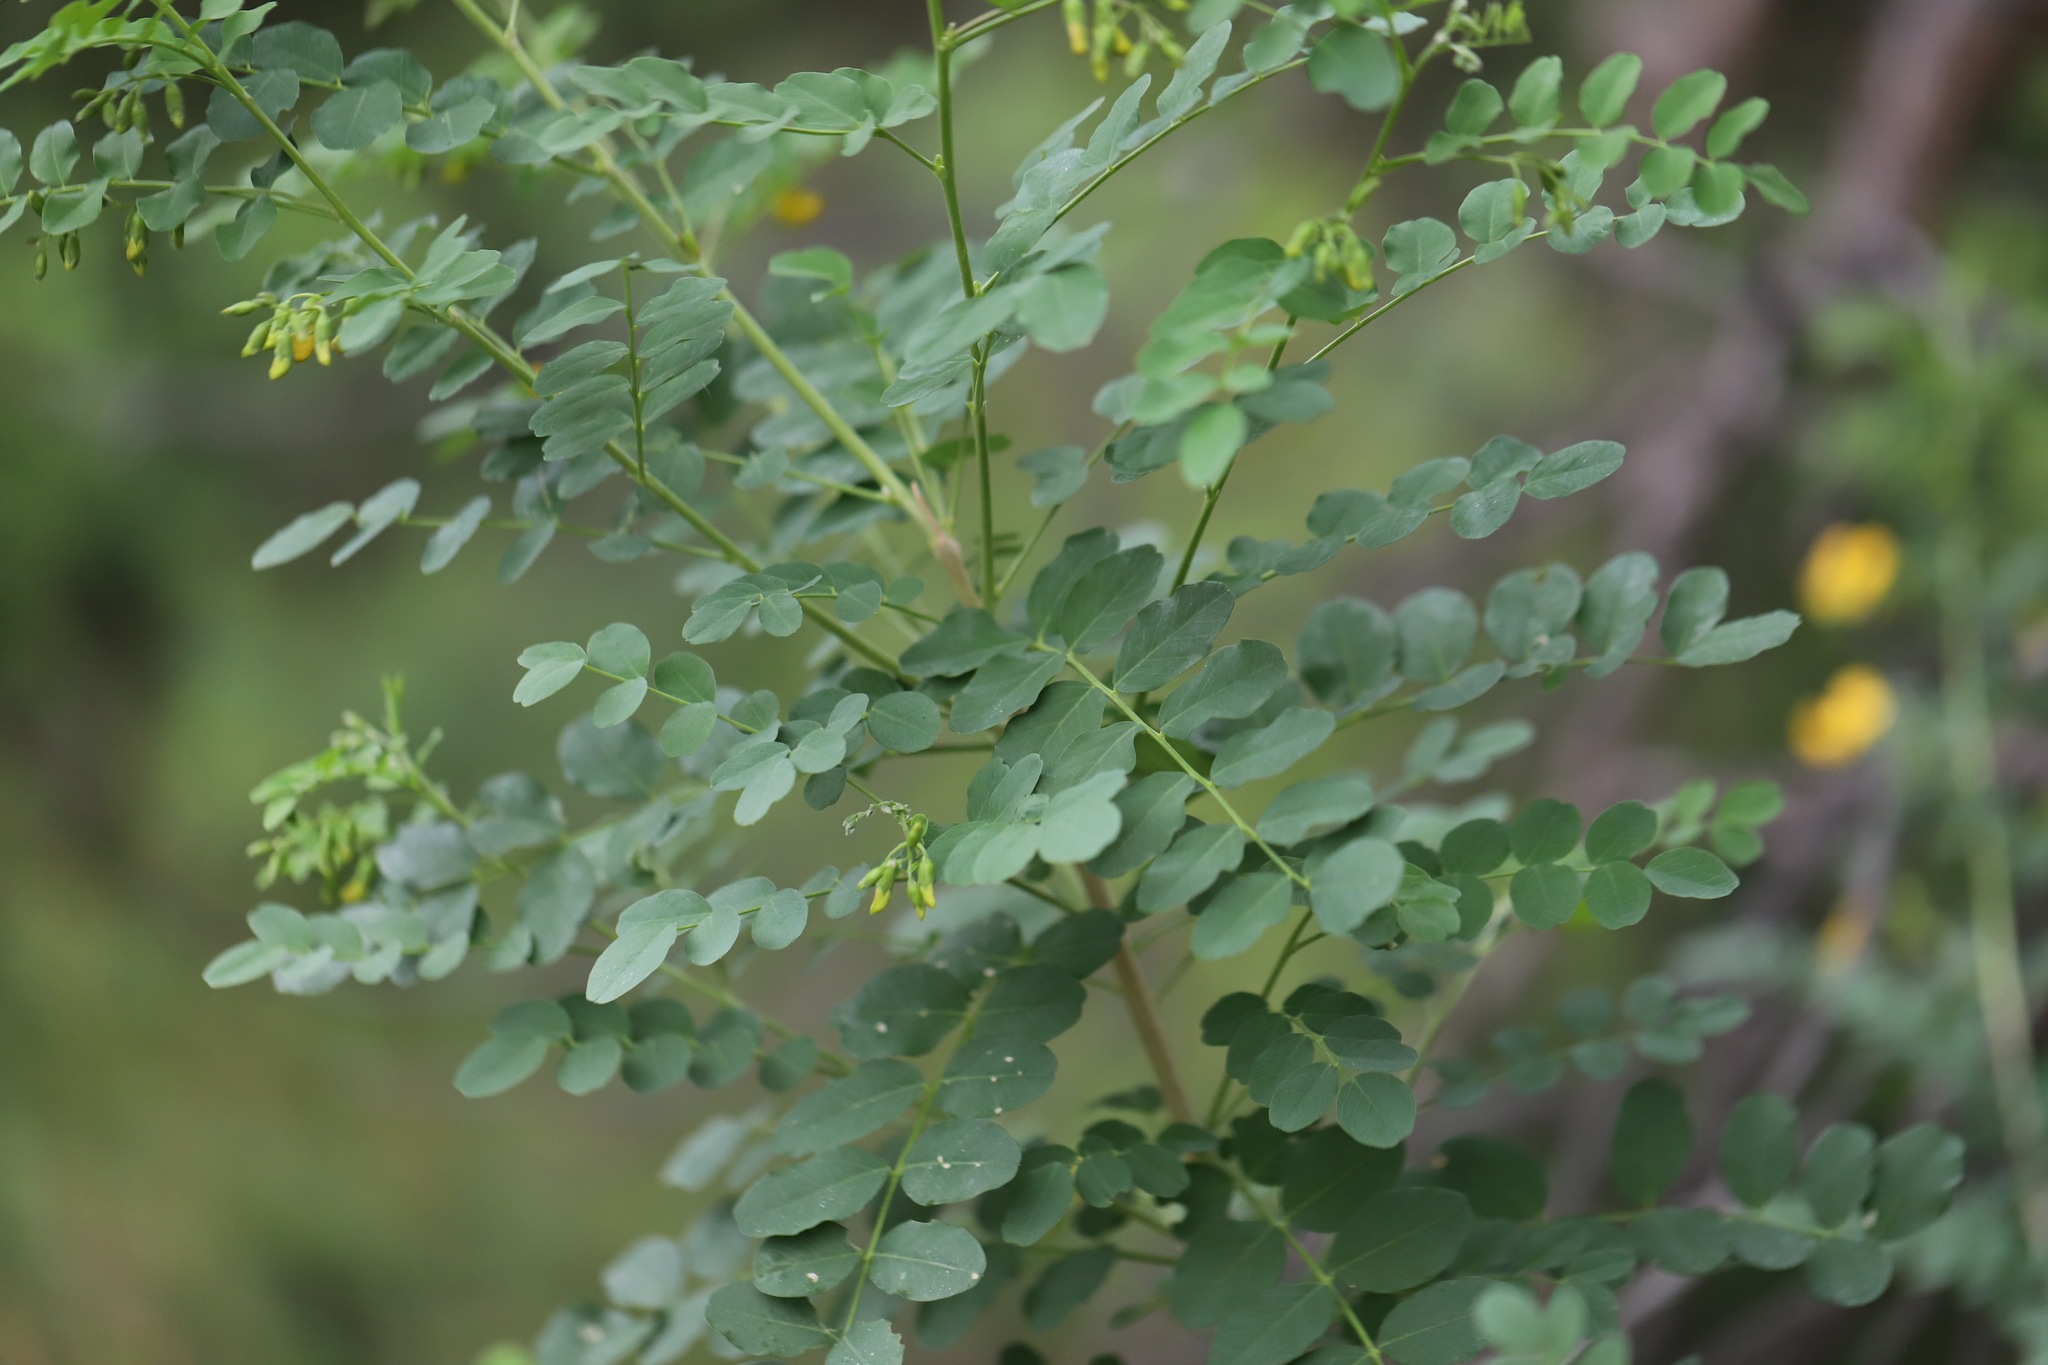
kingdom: Plantae
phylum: Tracheophyta
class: Magnoliopsida
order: Fabales
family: Fabaceae
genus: Colutea
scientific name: Colutea arborescens
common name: Bladder-senna
